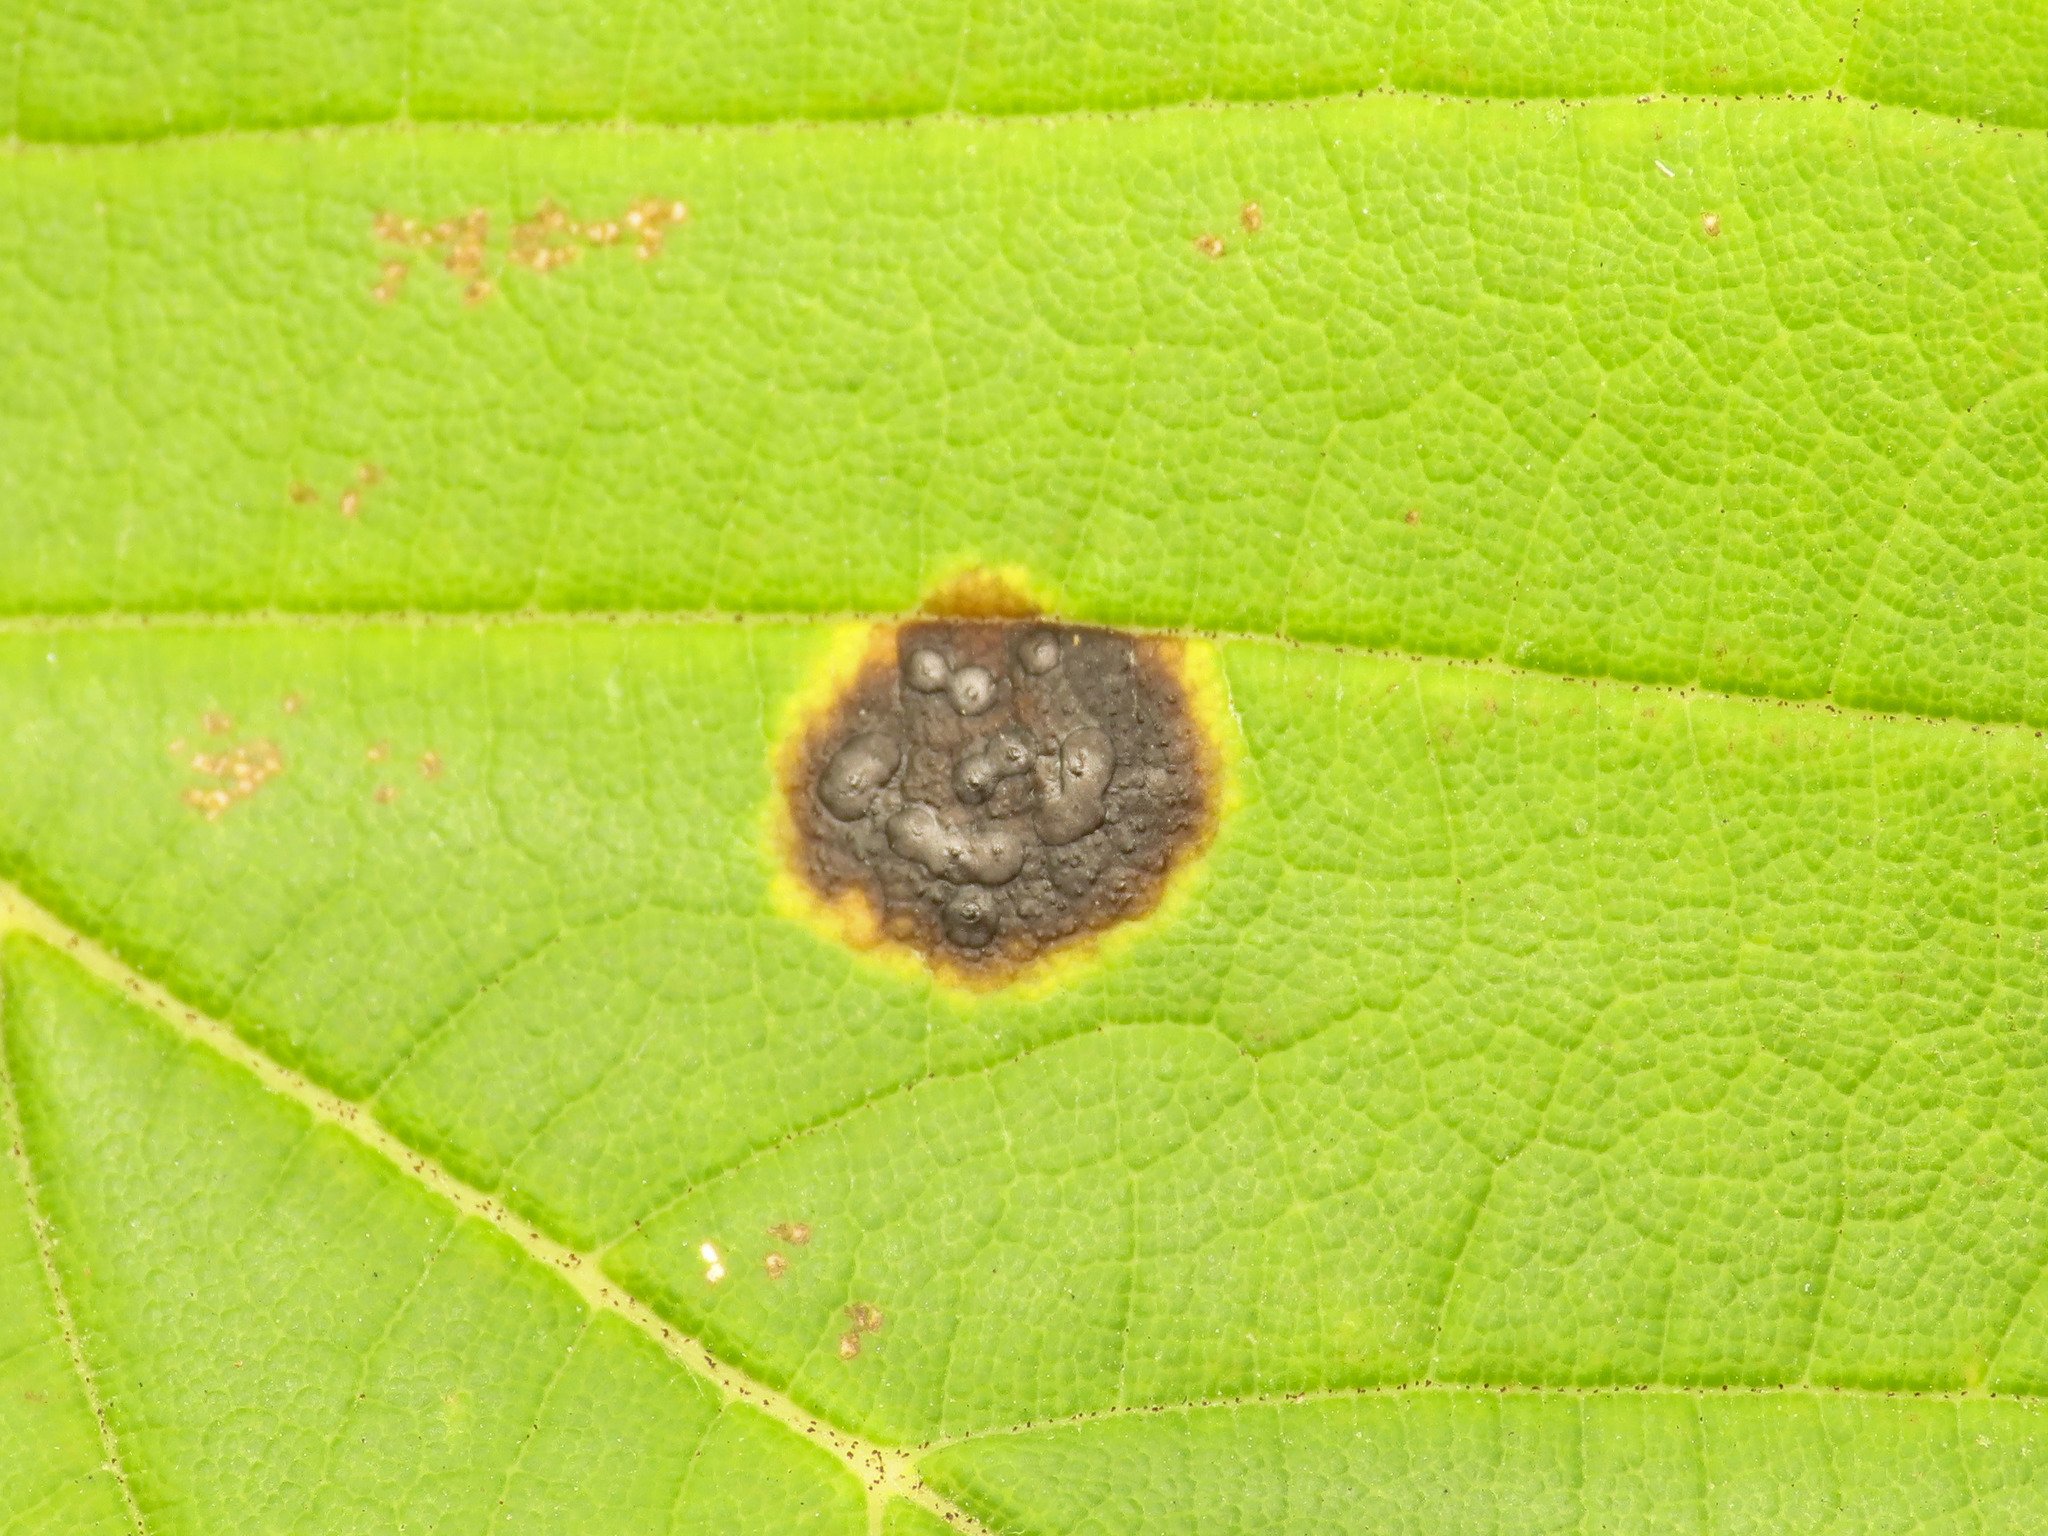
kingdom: Fungi
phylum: Ascomycota
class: Leotiomycetes
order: Rhytismatales
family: Rhytismataceae
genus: Rhytisma
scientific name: Rhytisma acerinum
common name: European tar spot
